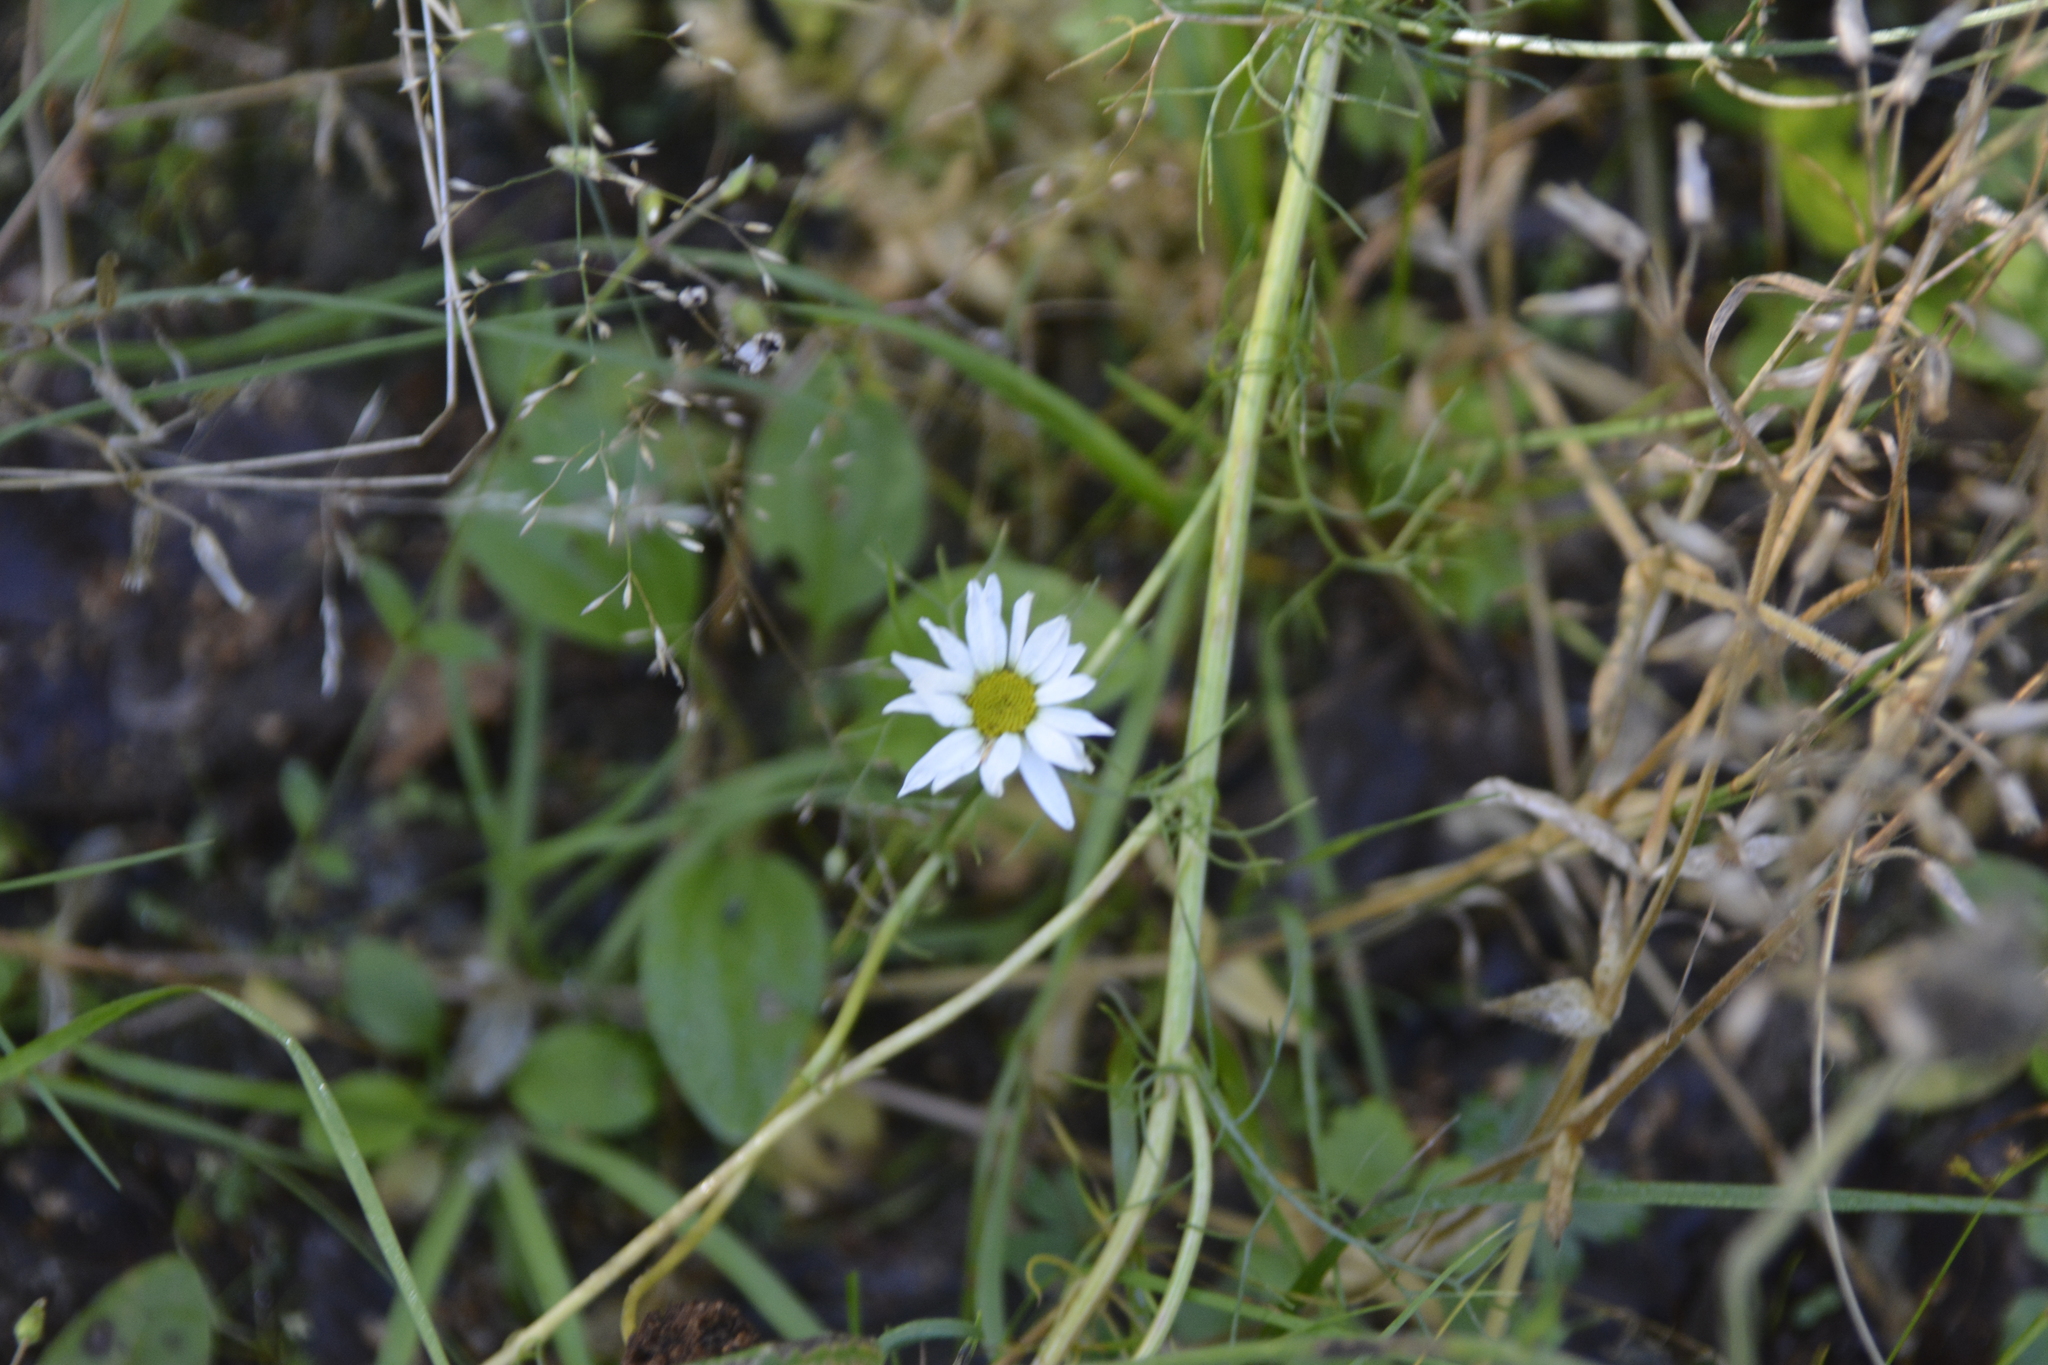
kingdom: Plantae
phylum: Tracheophyta
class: Magnoliopsida
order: Asterales
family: Asteraceae
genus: Tripleurospermum
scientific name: Tripleurospermum inodorum
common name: Scentless mayweed
